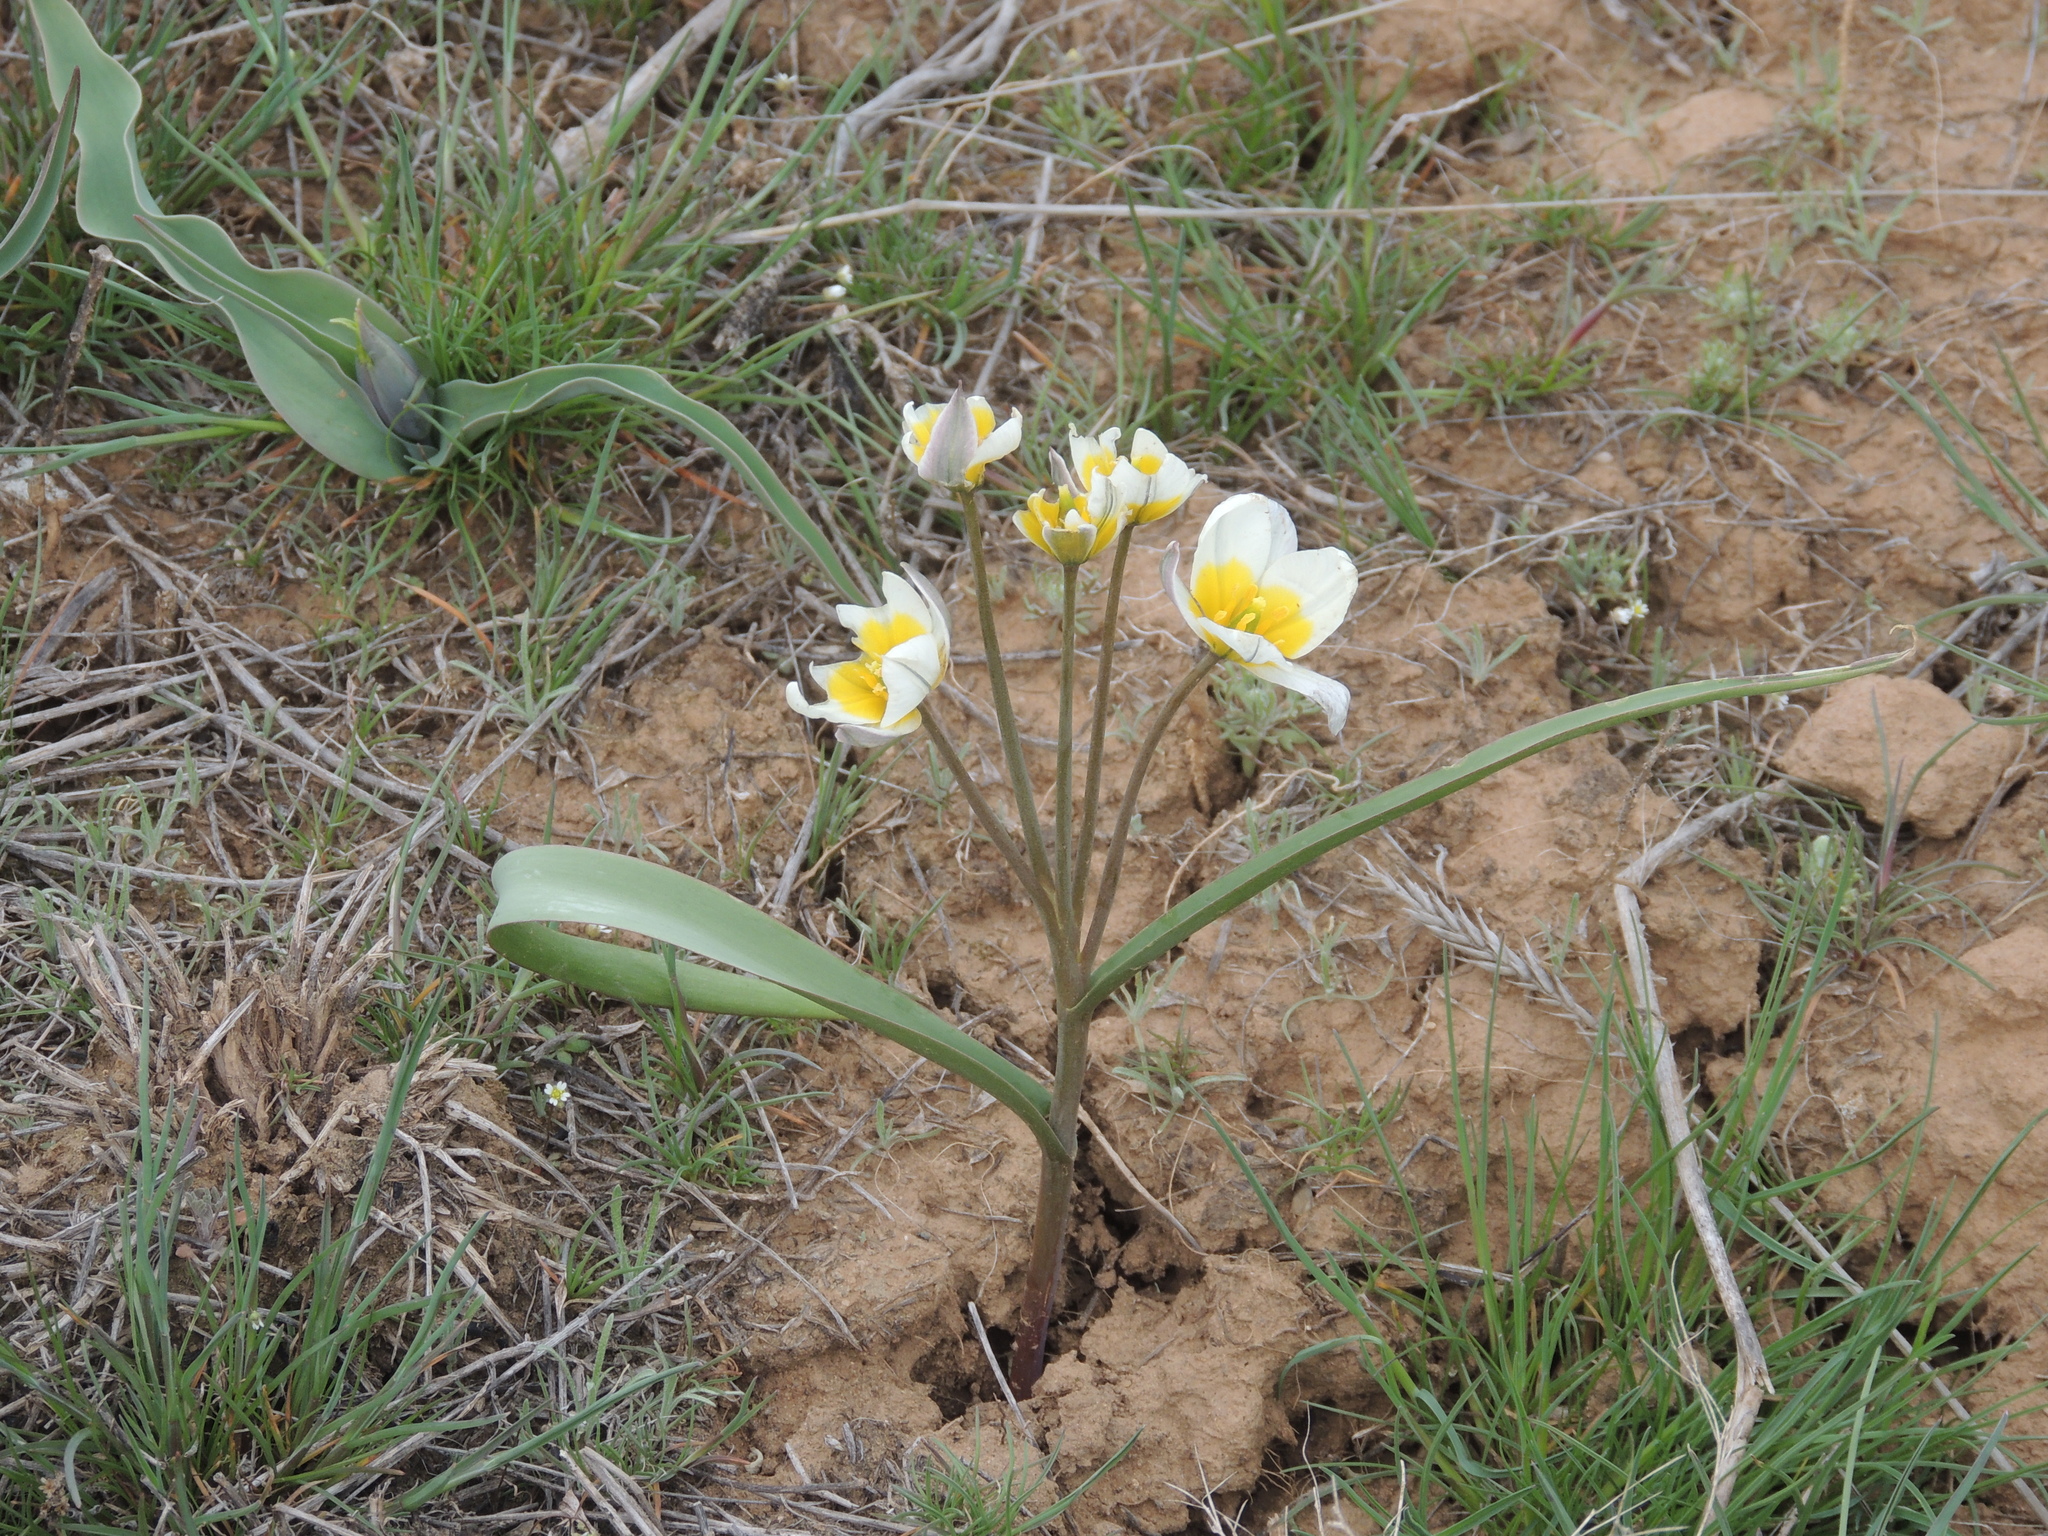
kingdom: Plantae
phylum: Tracheophyta
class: Liliopsida
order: Liliales
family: Liliaceae
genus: Tulipa
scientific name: Tulipa biflora
